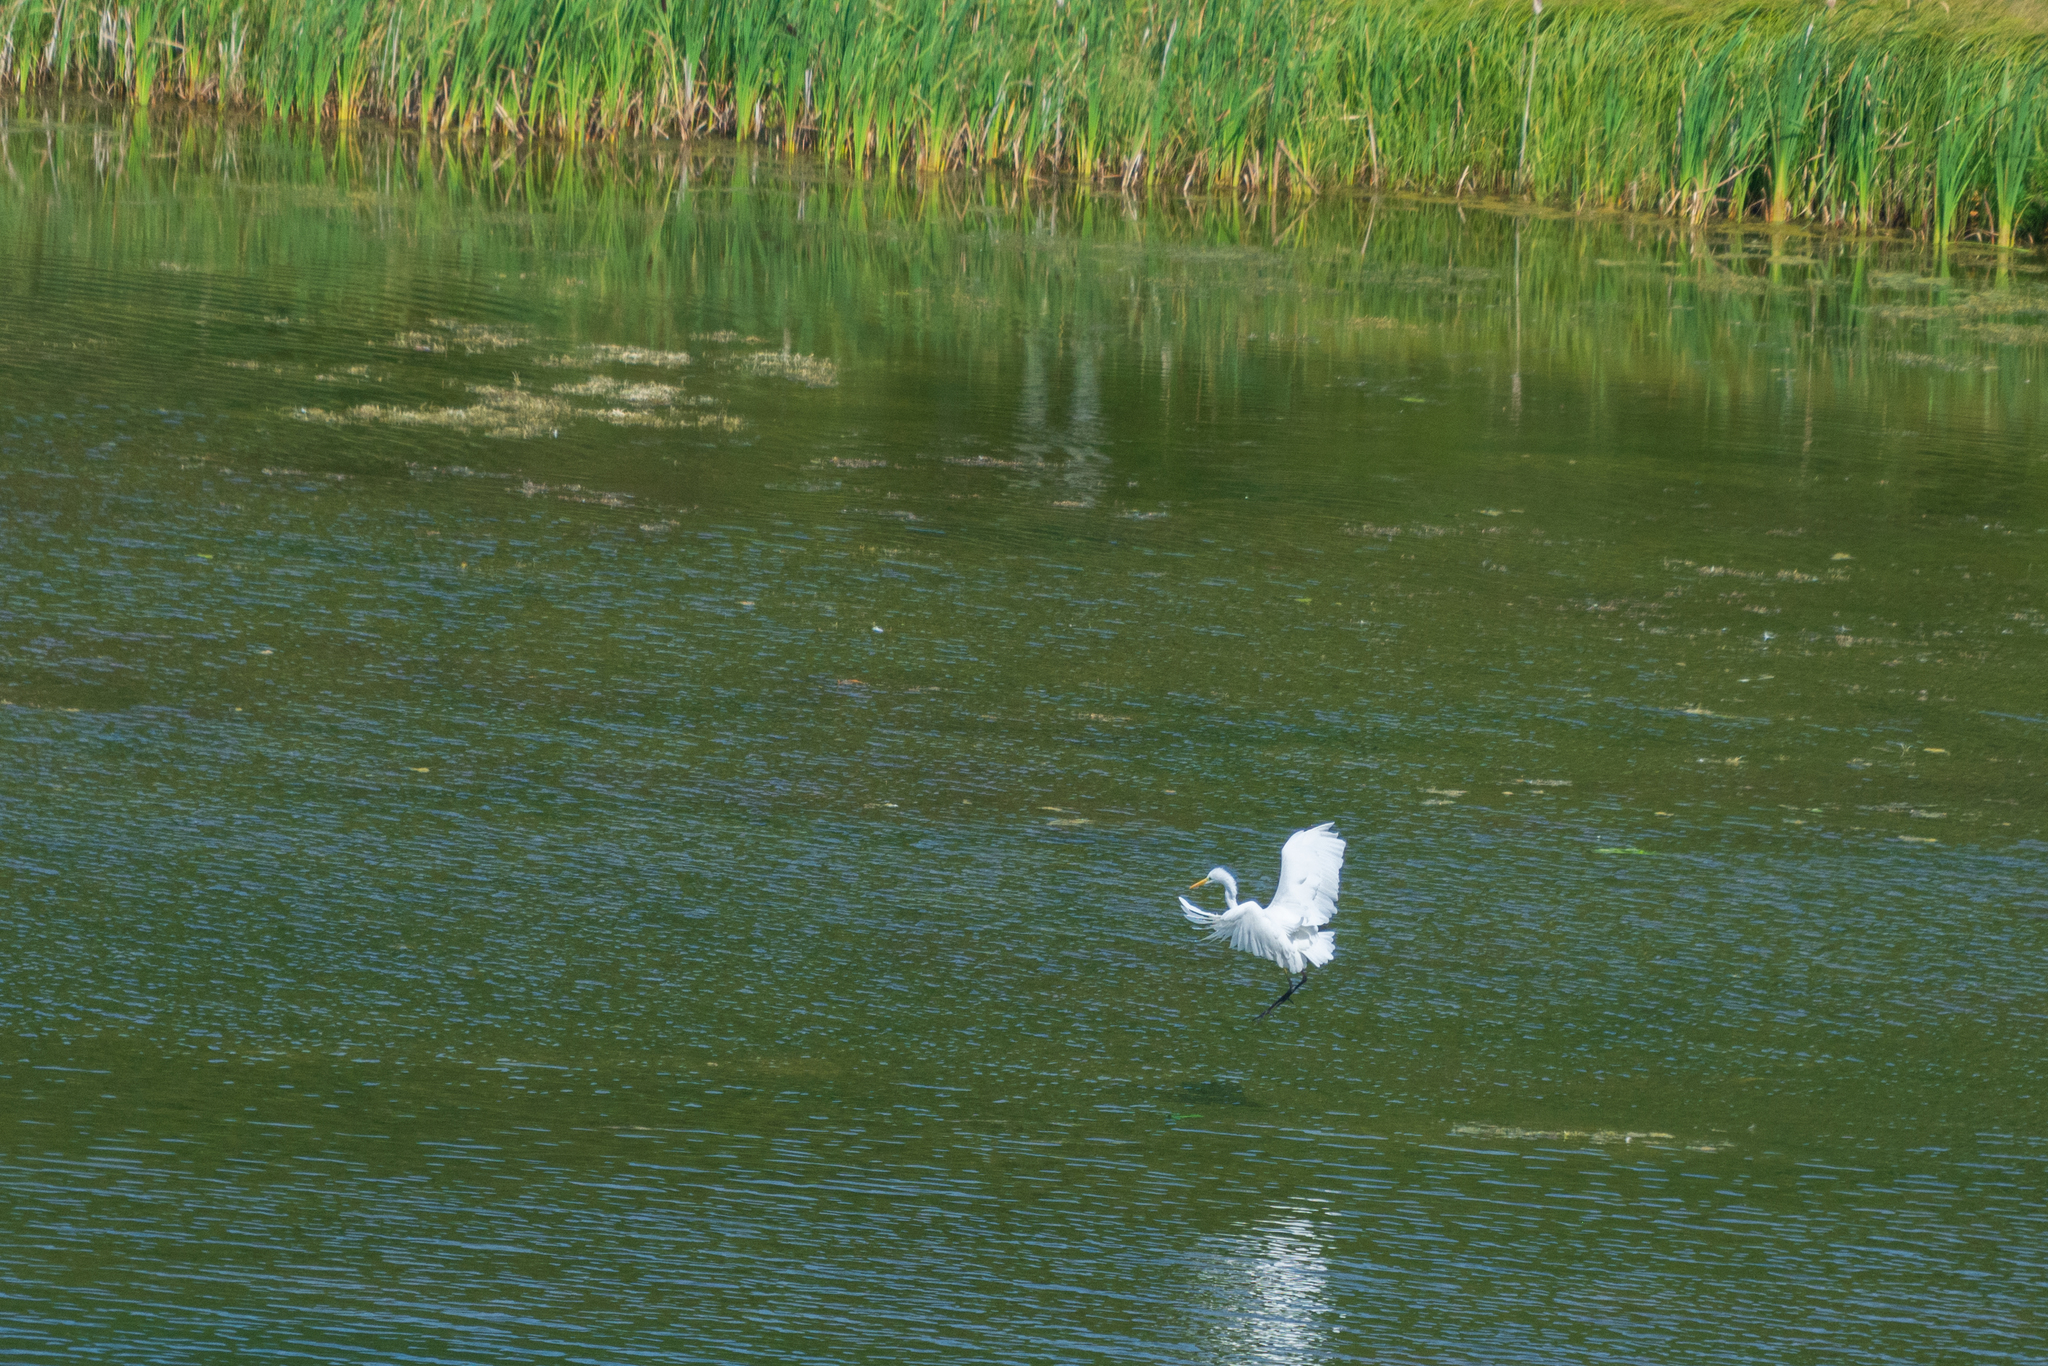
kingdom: Animalia
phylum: Chordata
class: Aves
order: Pelecaniformes
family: Ardeidae
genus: Ardea
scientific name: Ardea alba
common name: Great egret
